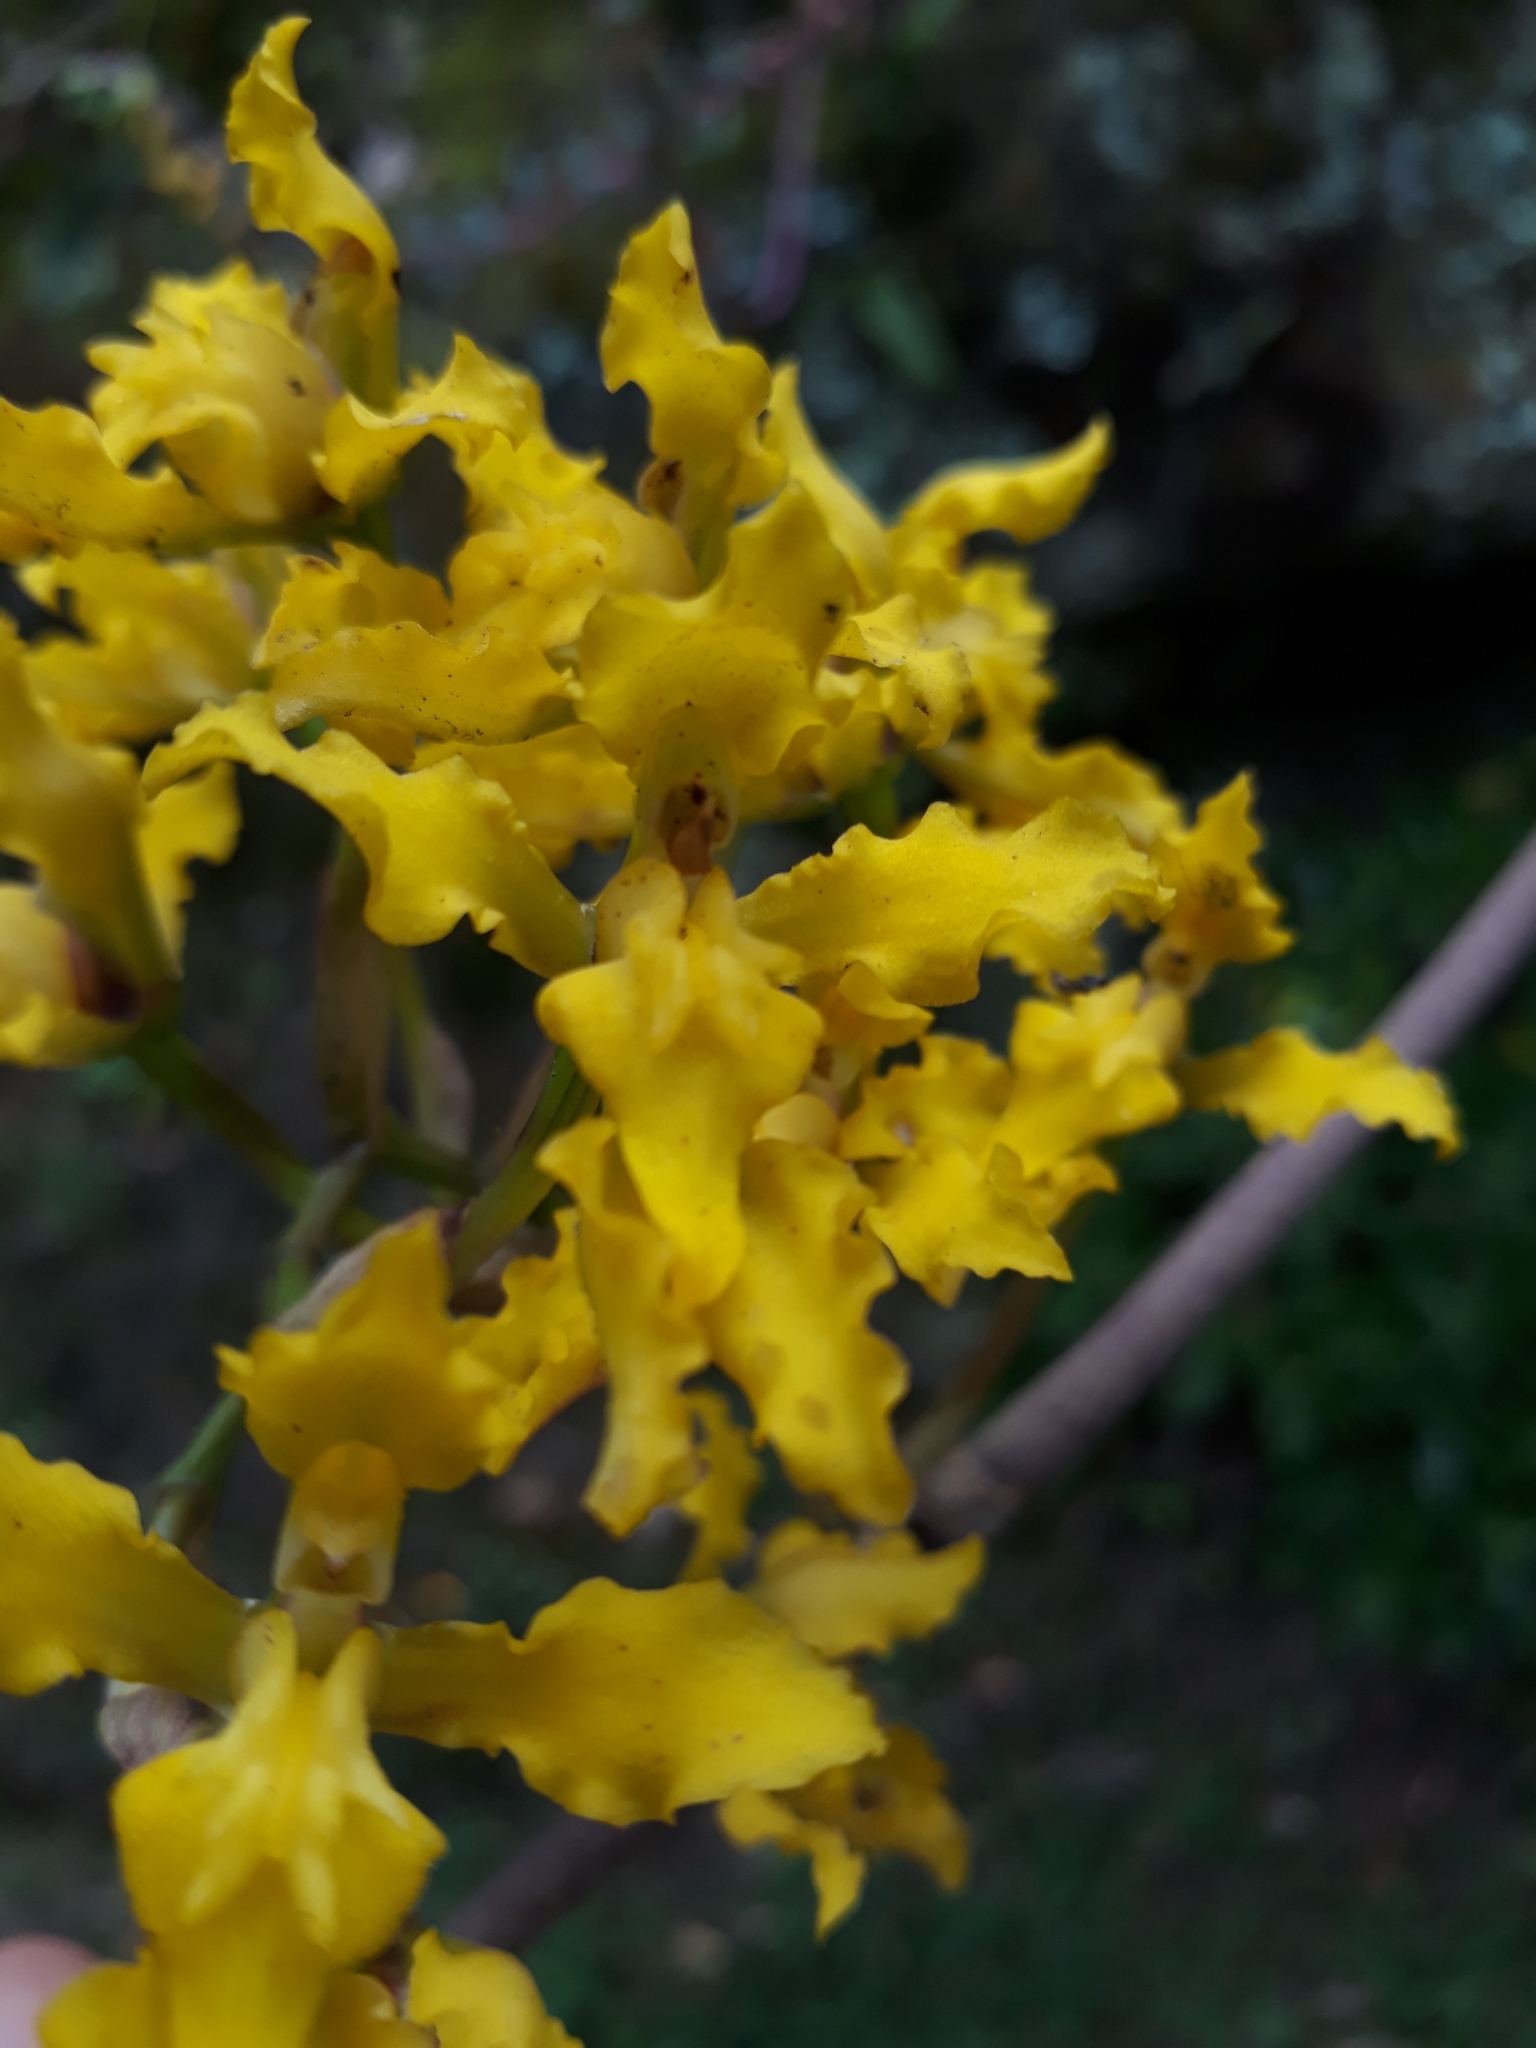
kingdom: Plantae
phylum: Tracheophyta
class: Liliopsida
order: Asparagales
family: Orchidaceae
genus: Cyrtochilum
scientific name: Cyrtochilum revolutum
